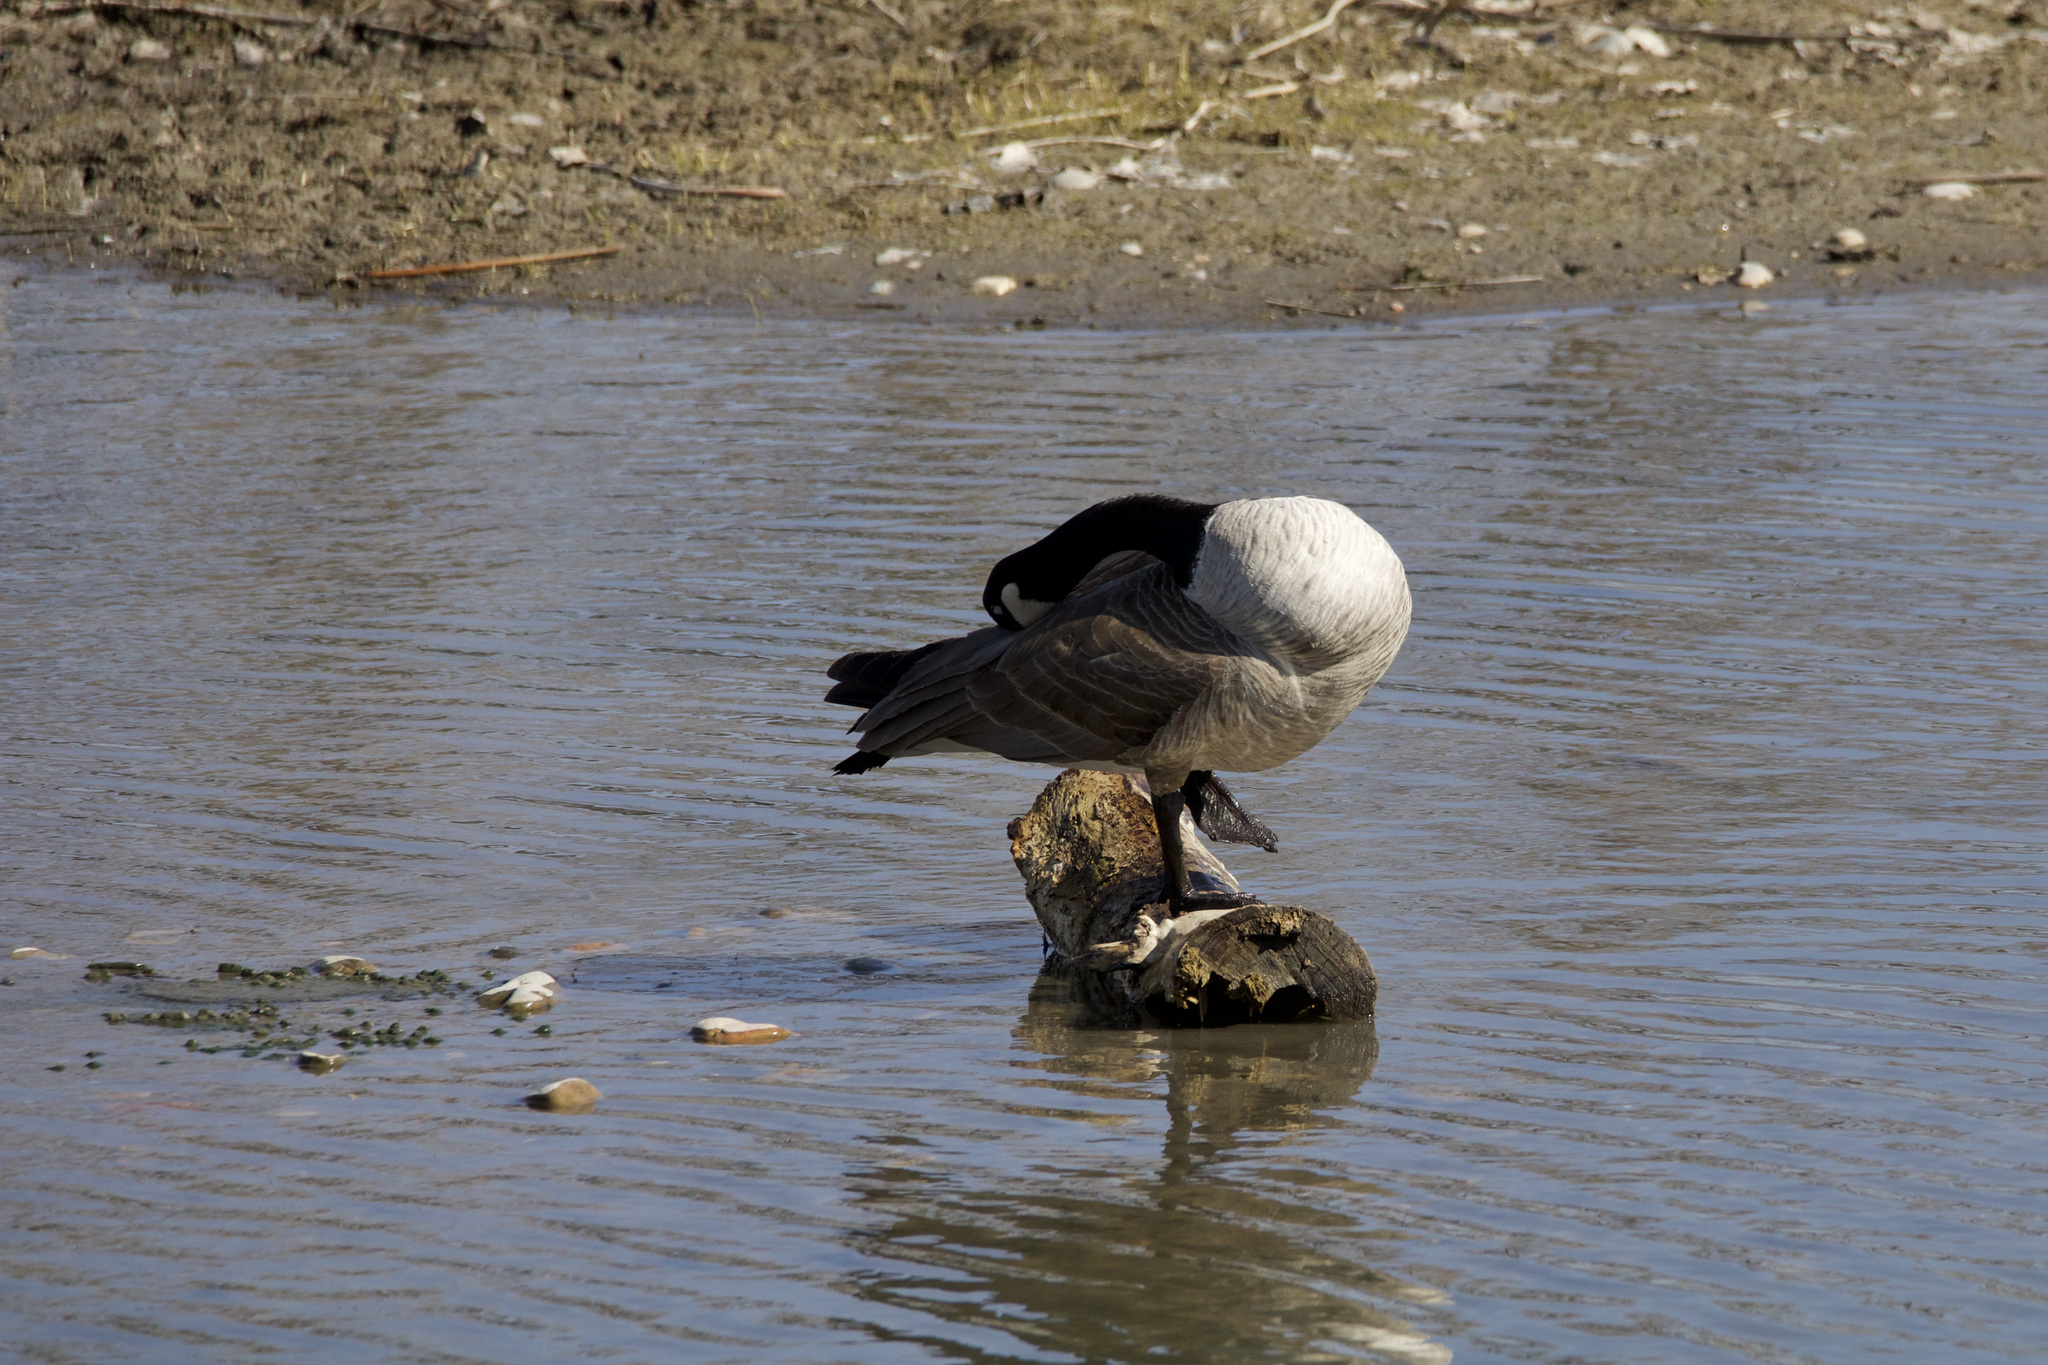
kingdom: Animalia
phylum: Chordata
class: Aves
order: Anseriformes
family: Anatidae
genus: Branta
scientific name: Branta canadensis
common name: Canada goose
